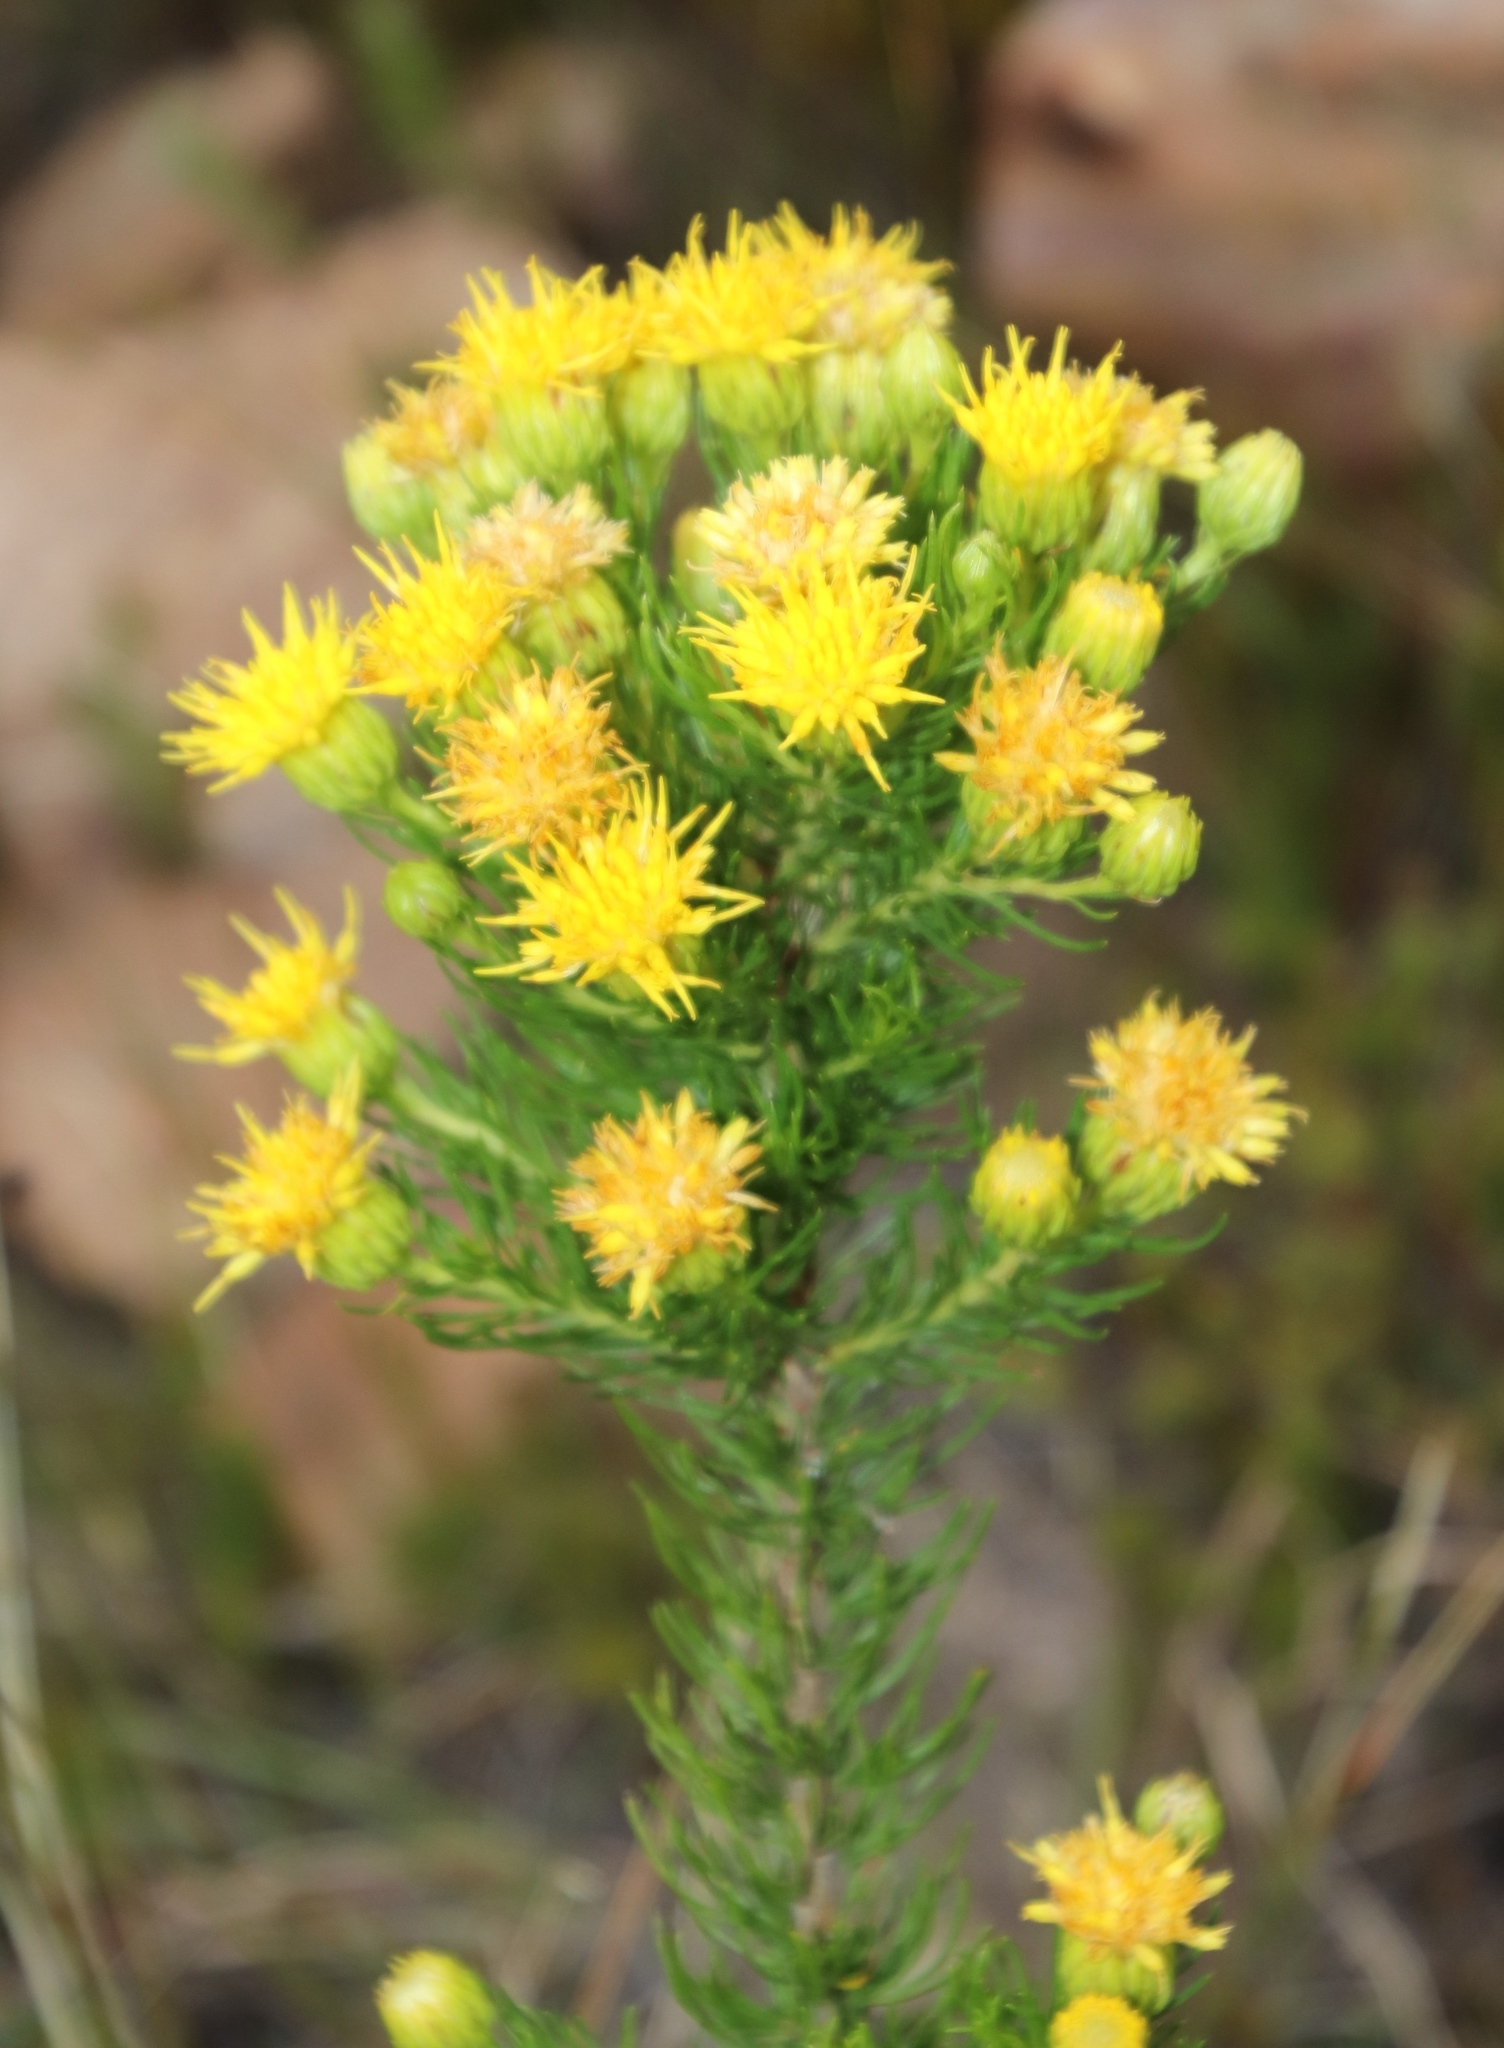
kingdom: Plantae
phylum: Tracheophyta
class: Magnoliopsida
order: Asterales
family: Asteraceae
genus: Pteronia
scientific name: Pteronia camphorata
